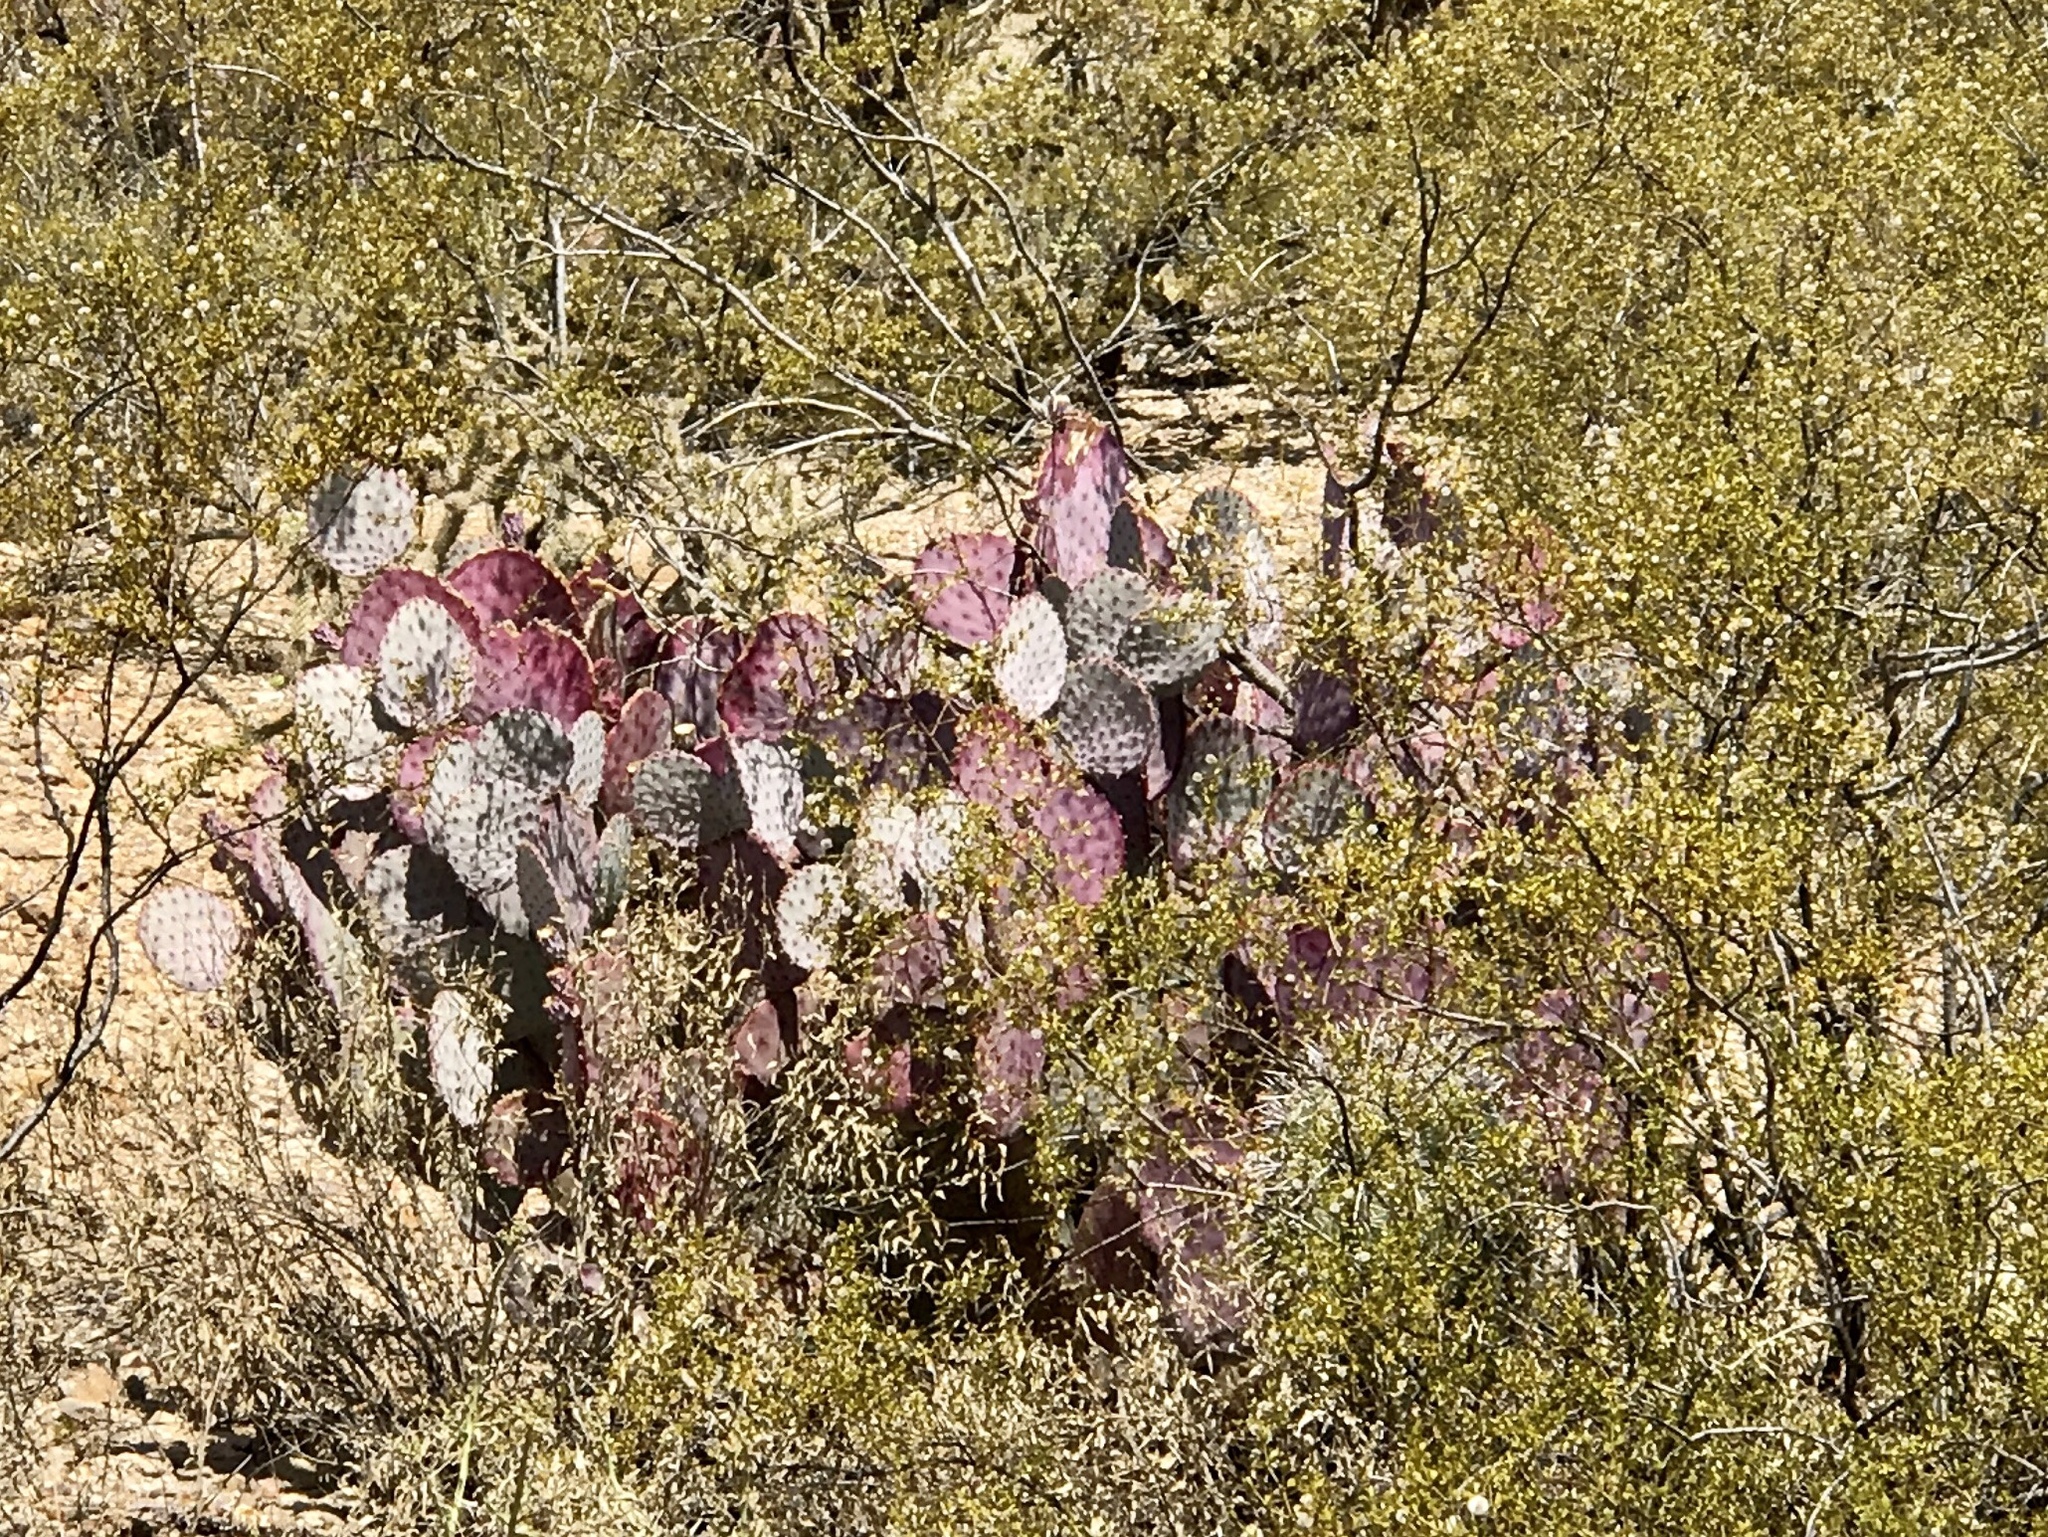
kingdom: Plantae
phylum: Tracheophyta
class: Magnoliopsida
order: Caryophyllales
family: Cactaceae
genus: Opuntia
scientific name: Opuntia gosseliniana
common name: Violet prickly-pear
